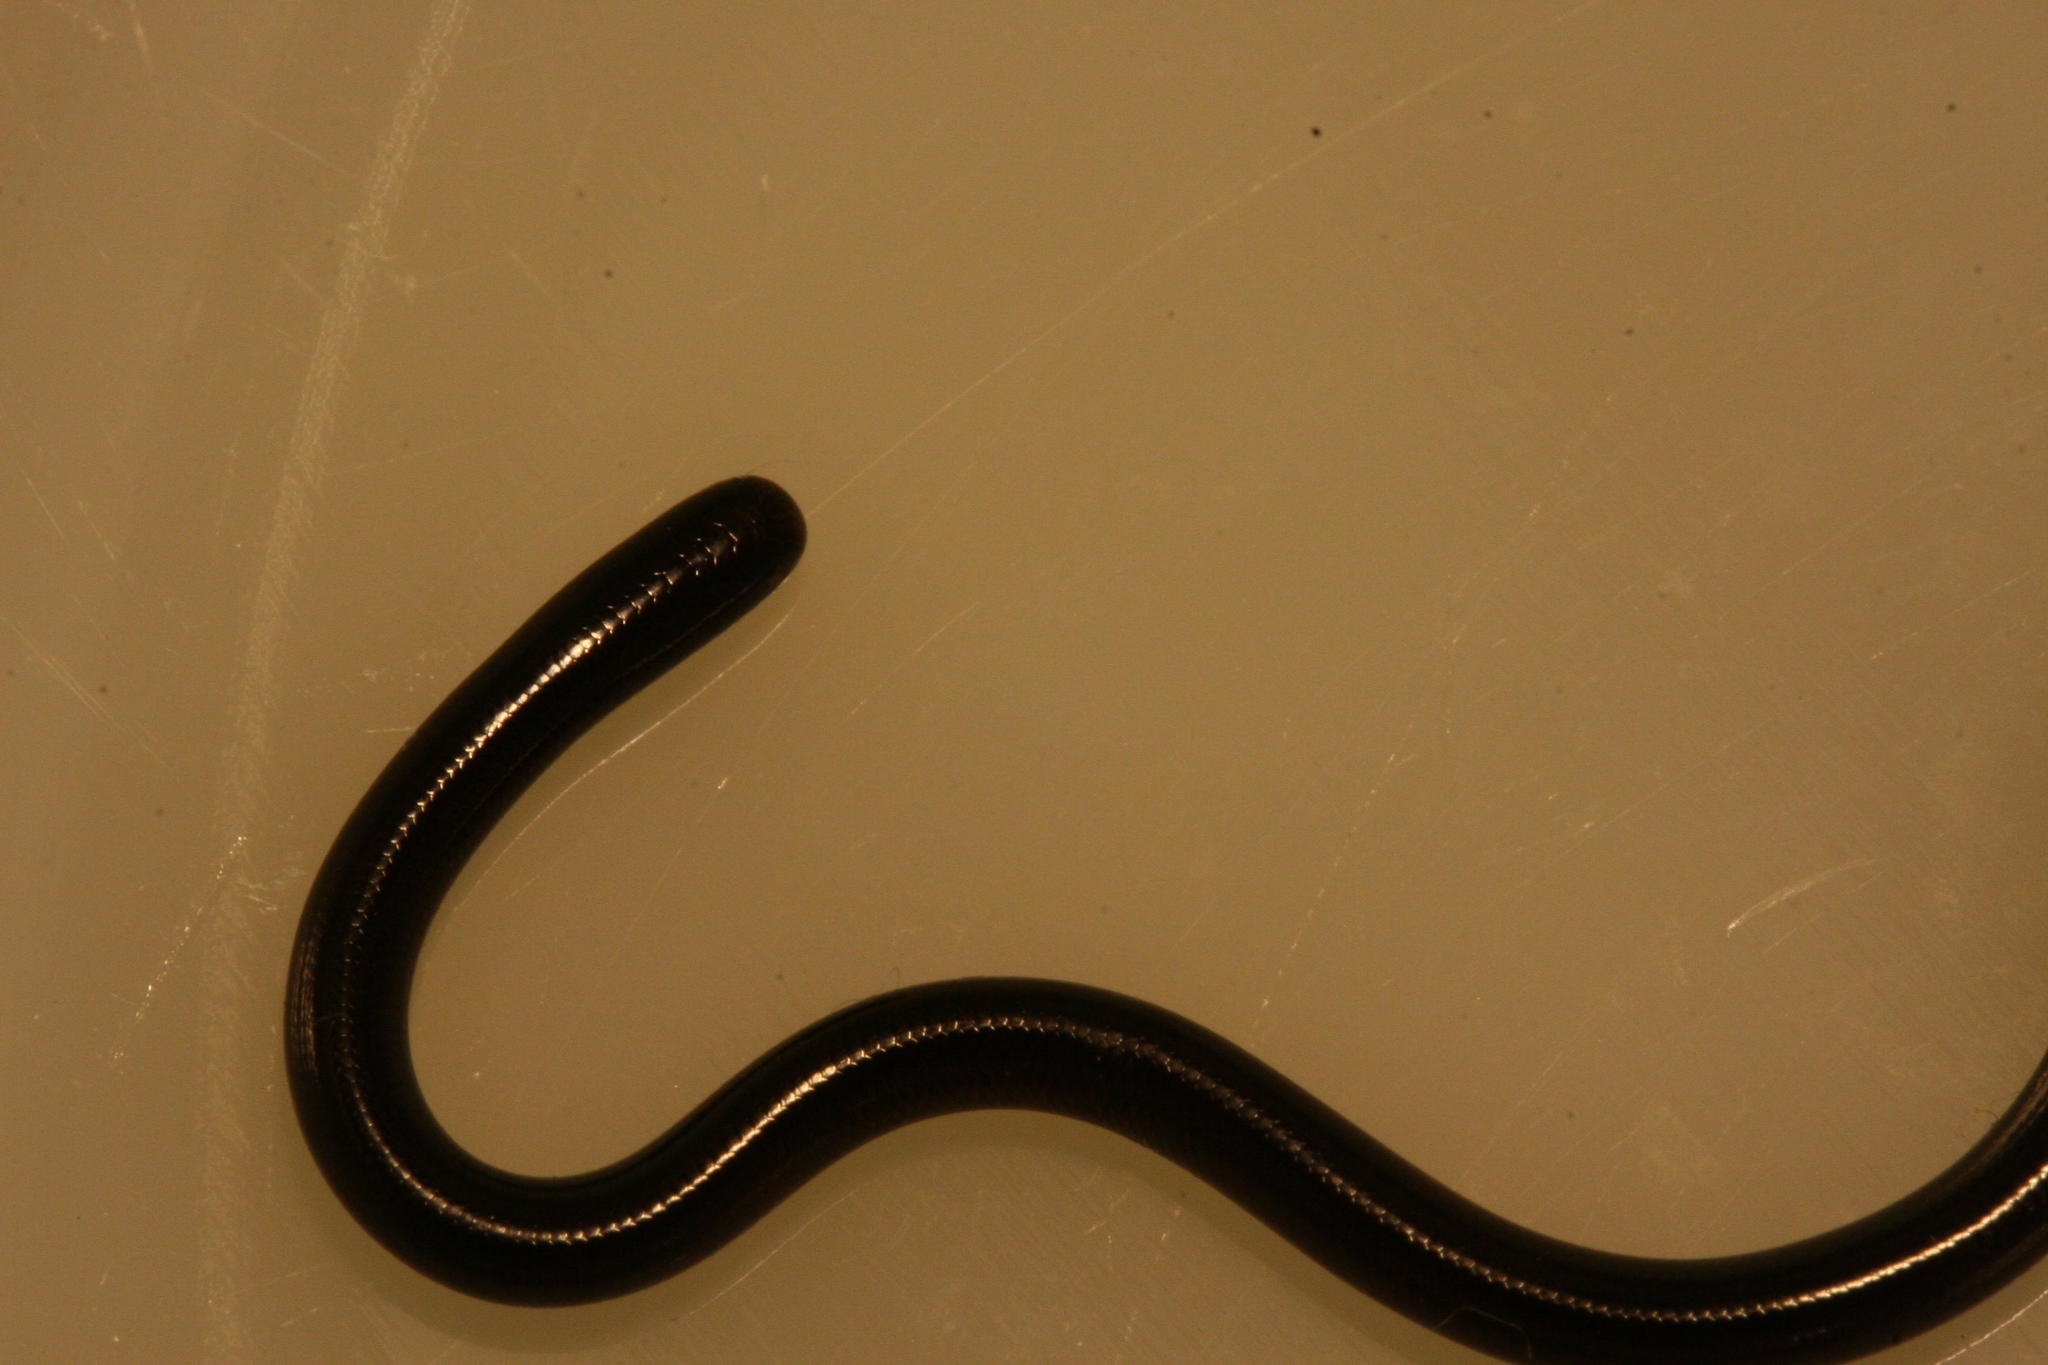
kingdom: Animalia
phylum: Chordata
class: Squamata
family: Typhlopidae
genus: Indotyphlops
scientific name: Indotyphlops braminus
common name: Brahminy blindsnake
